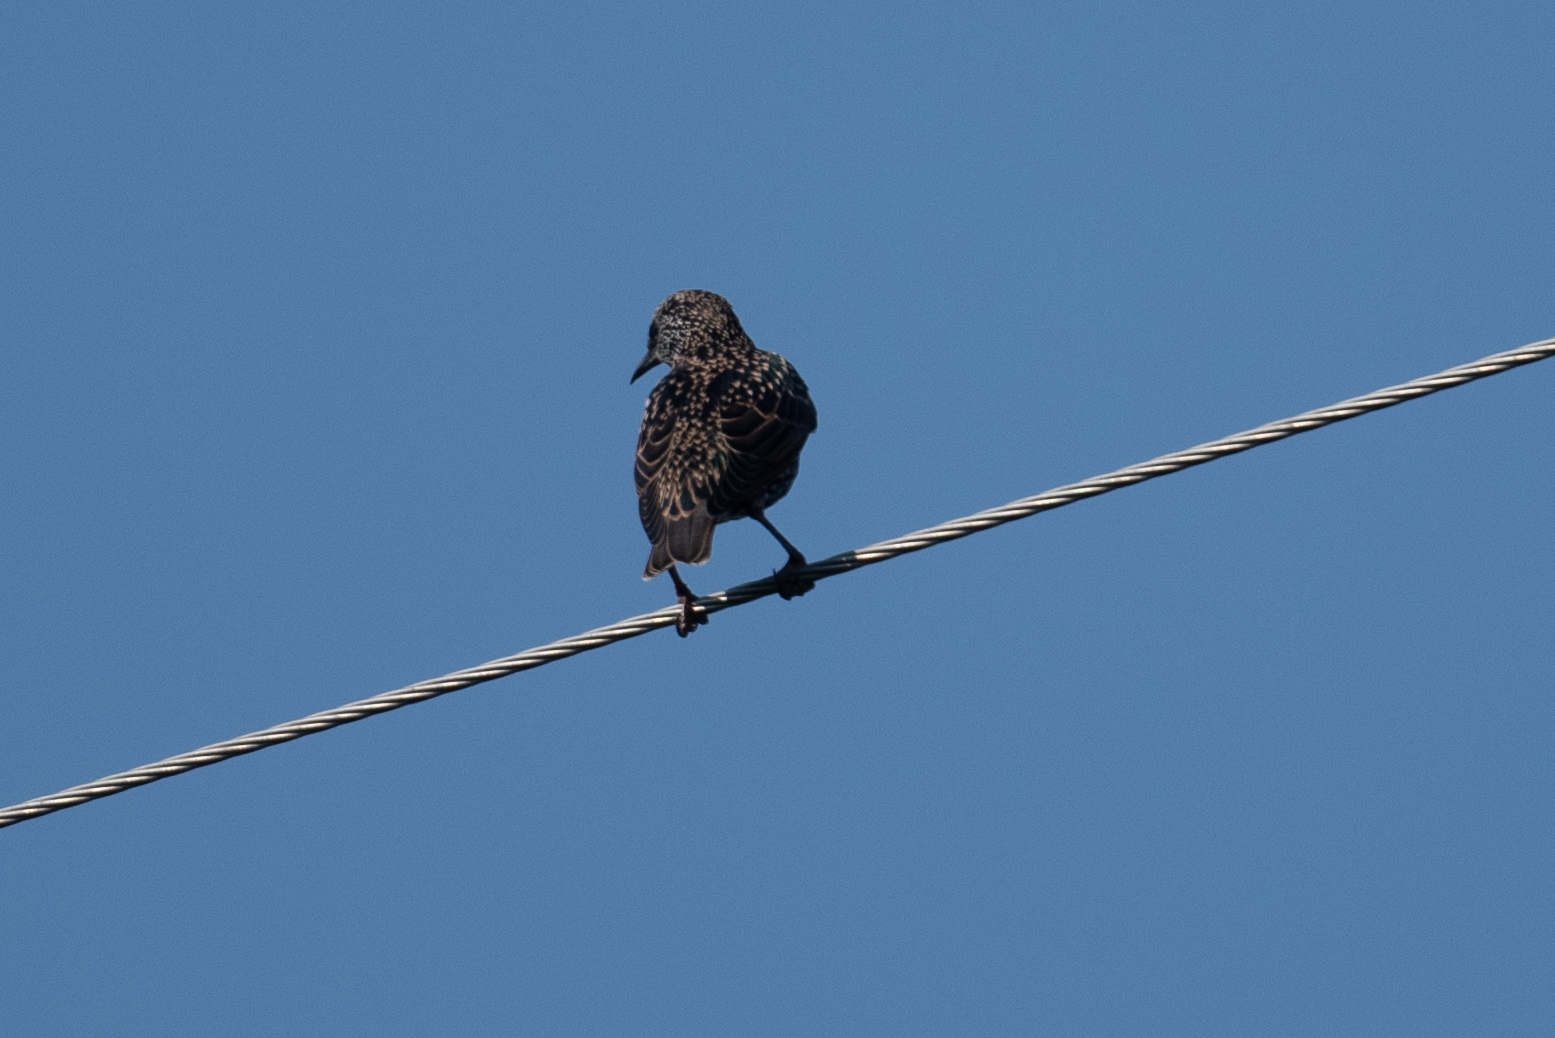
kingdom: Animalia
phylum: Chordata
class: Aves
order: Passeriformes
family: Sturnidae
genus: Sturnus
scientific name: Sturnus vulgaris
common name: Common starling
